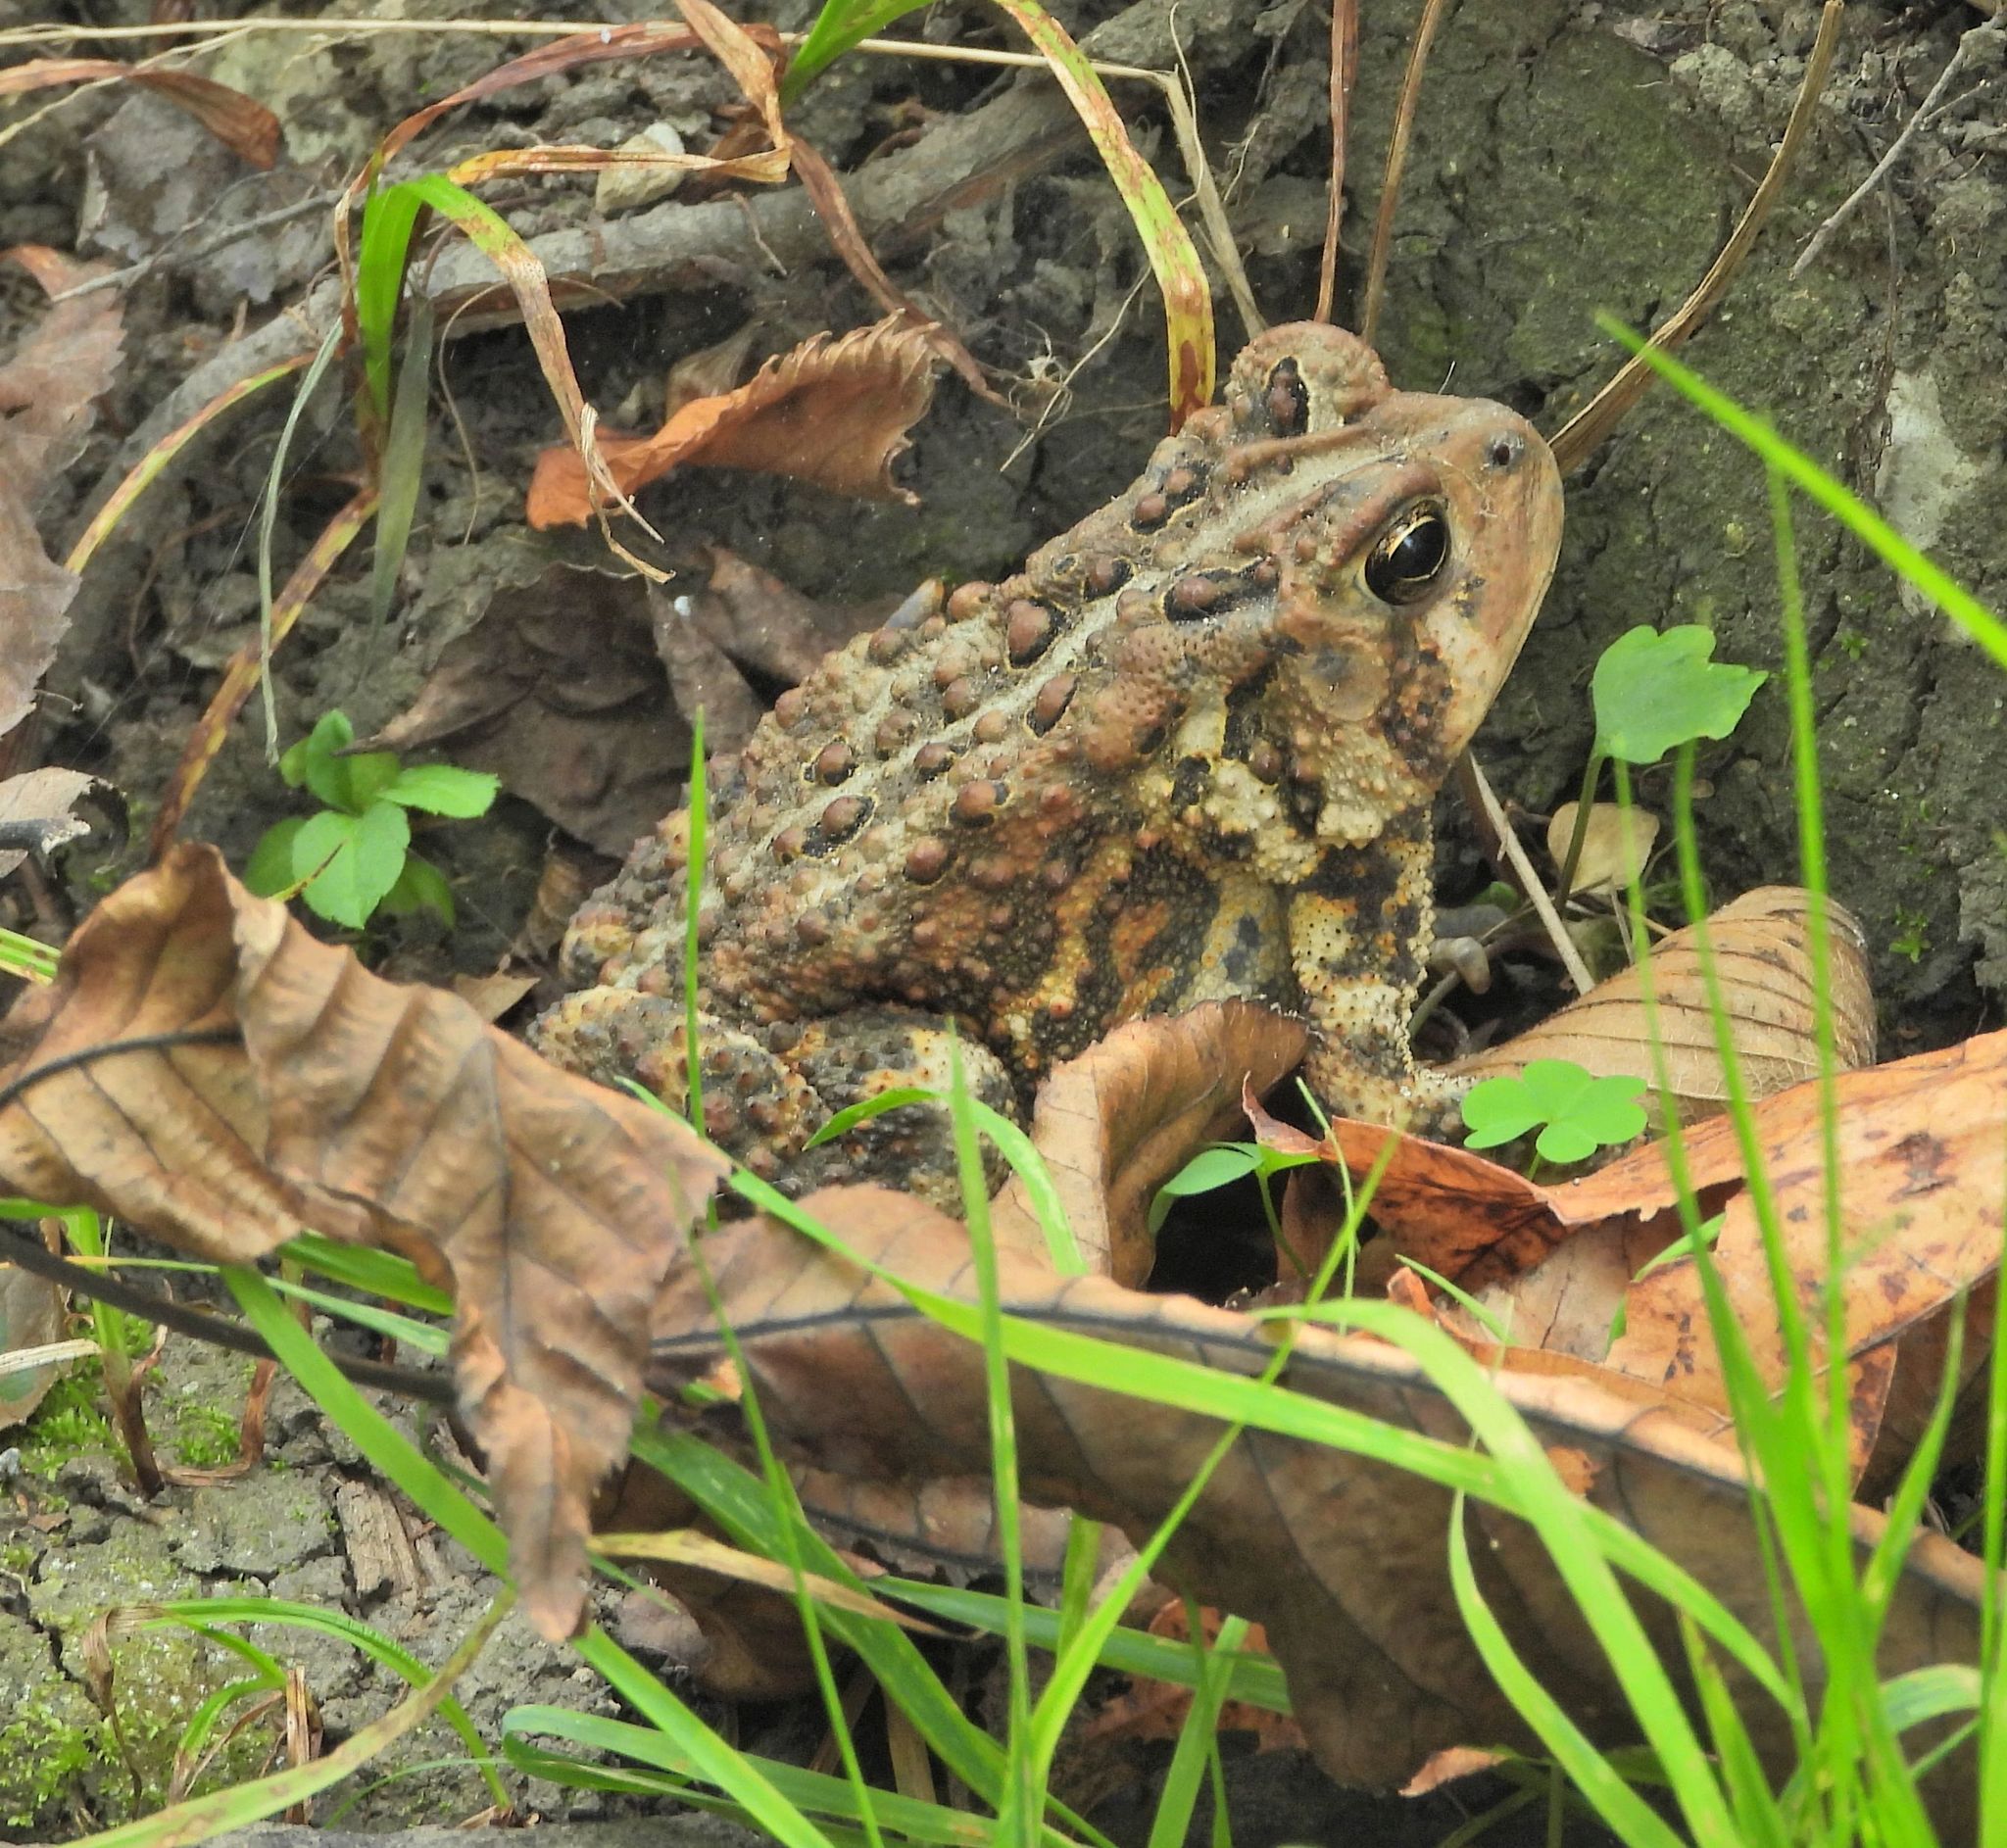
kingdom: Animalia
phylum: Chordata
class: Amphibia
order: Anura
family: Bufonidae
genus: Anaxyrus
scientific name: Anaxyrus americanus
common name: American toad
